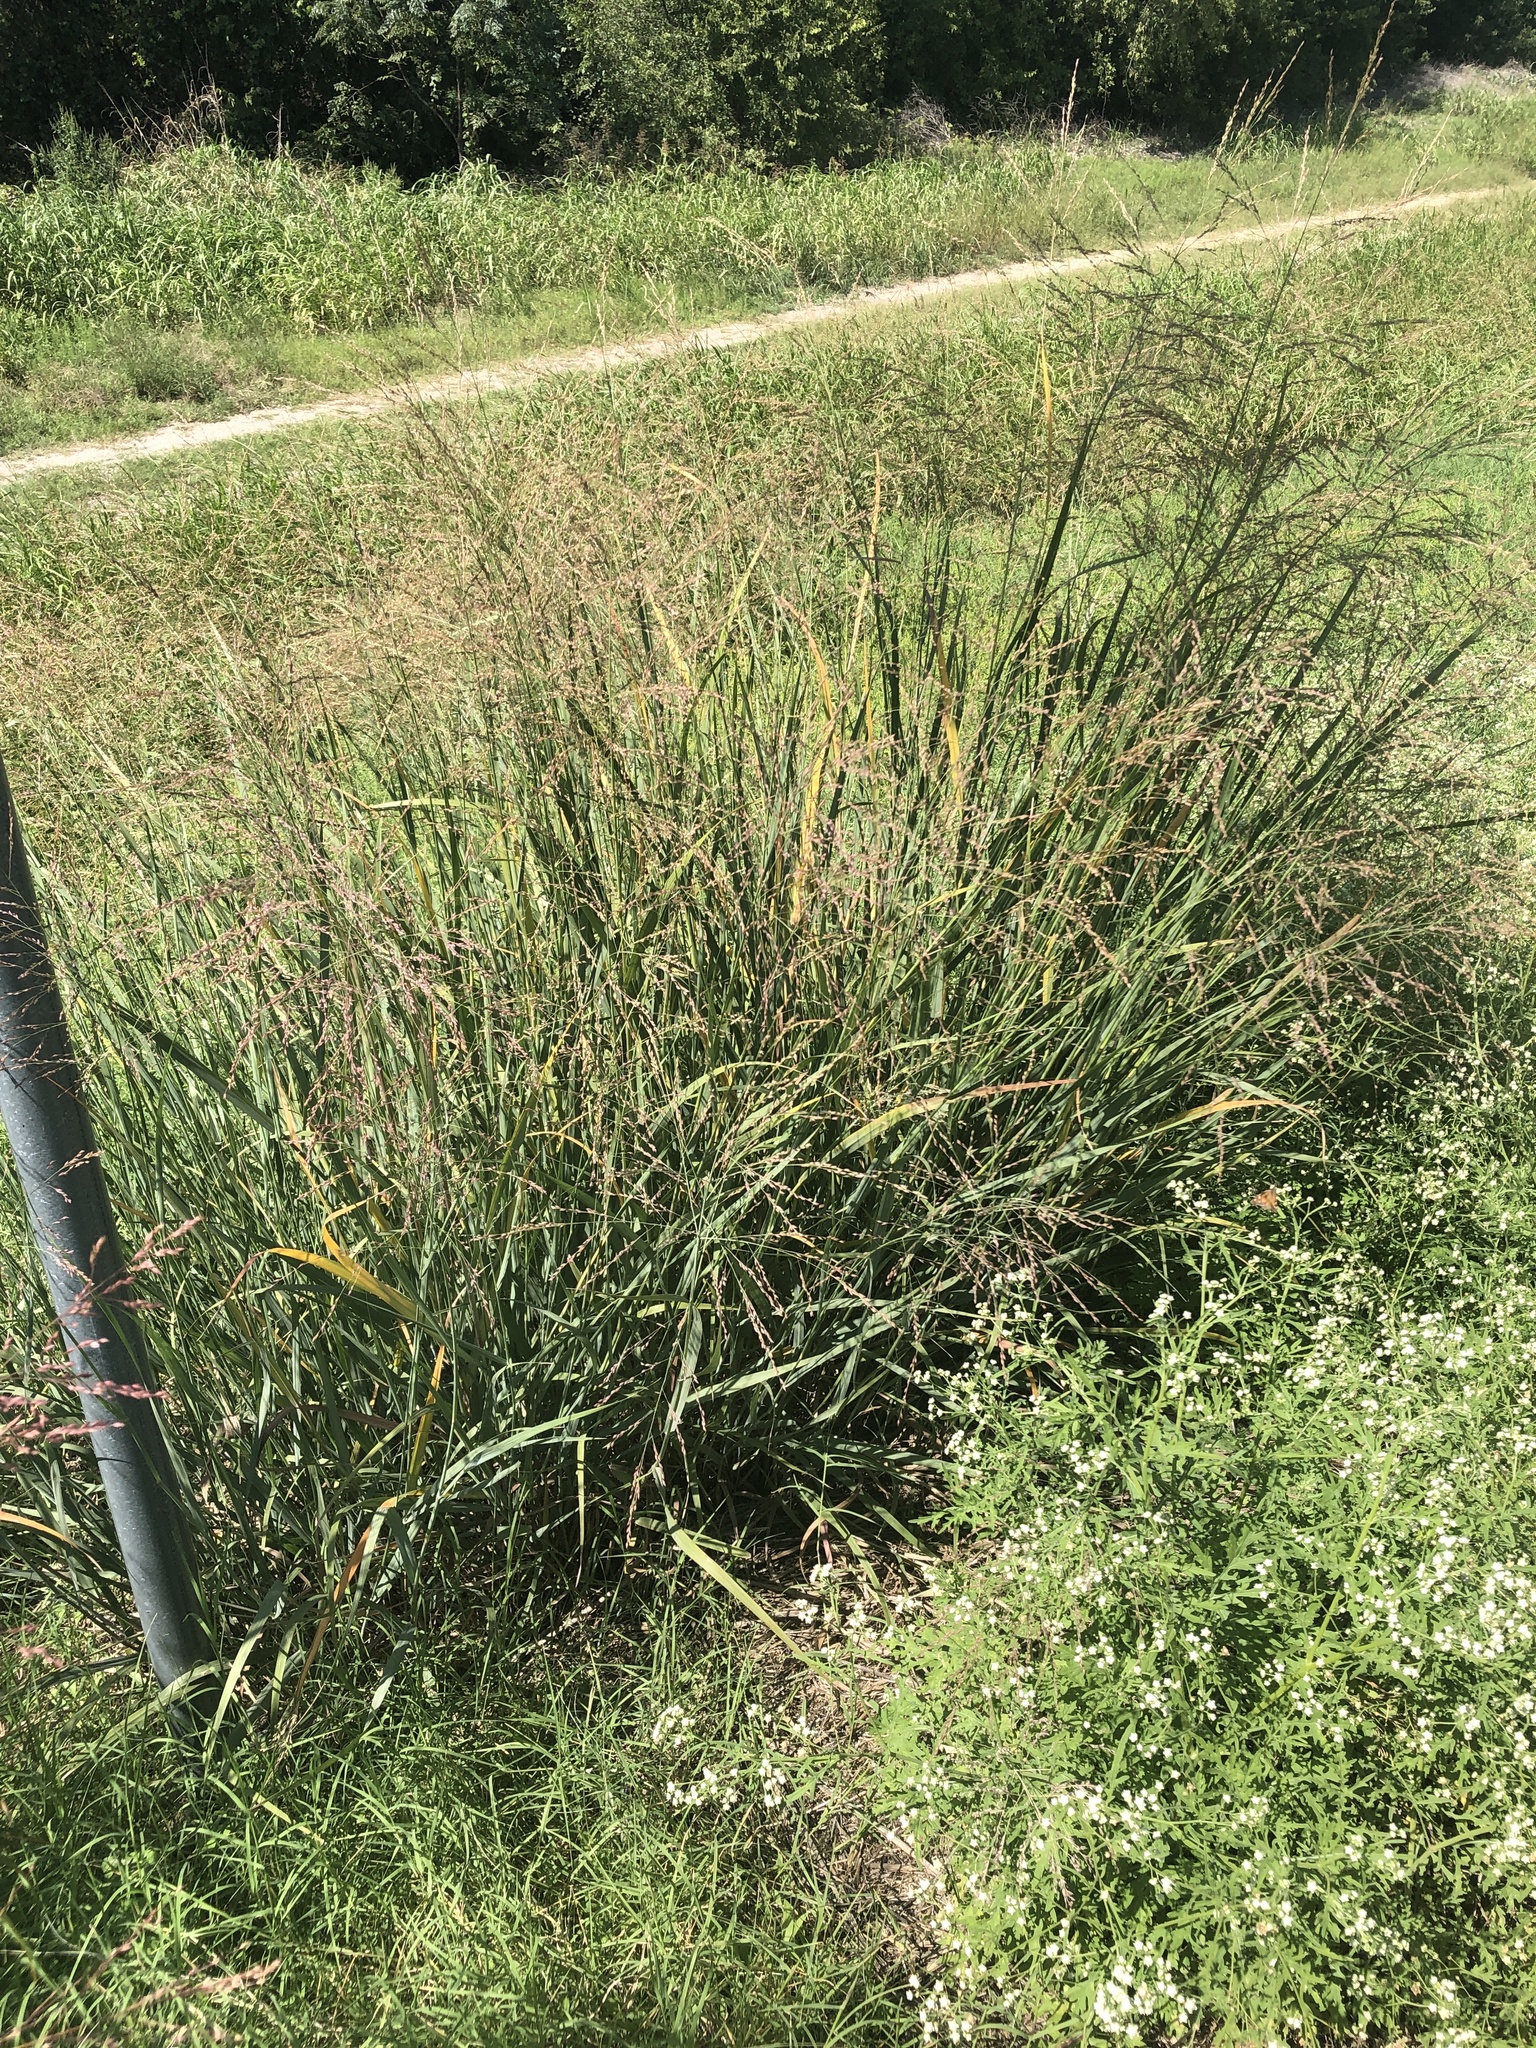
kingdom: Plantae
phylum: Tracheophyta
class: Liliopsida
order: Poales
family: Poaceae
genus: Panicum
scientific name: Panicum virgatum
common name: Switchgrass
